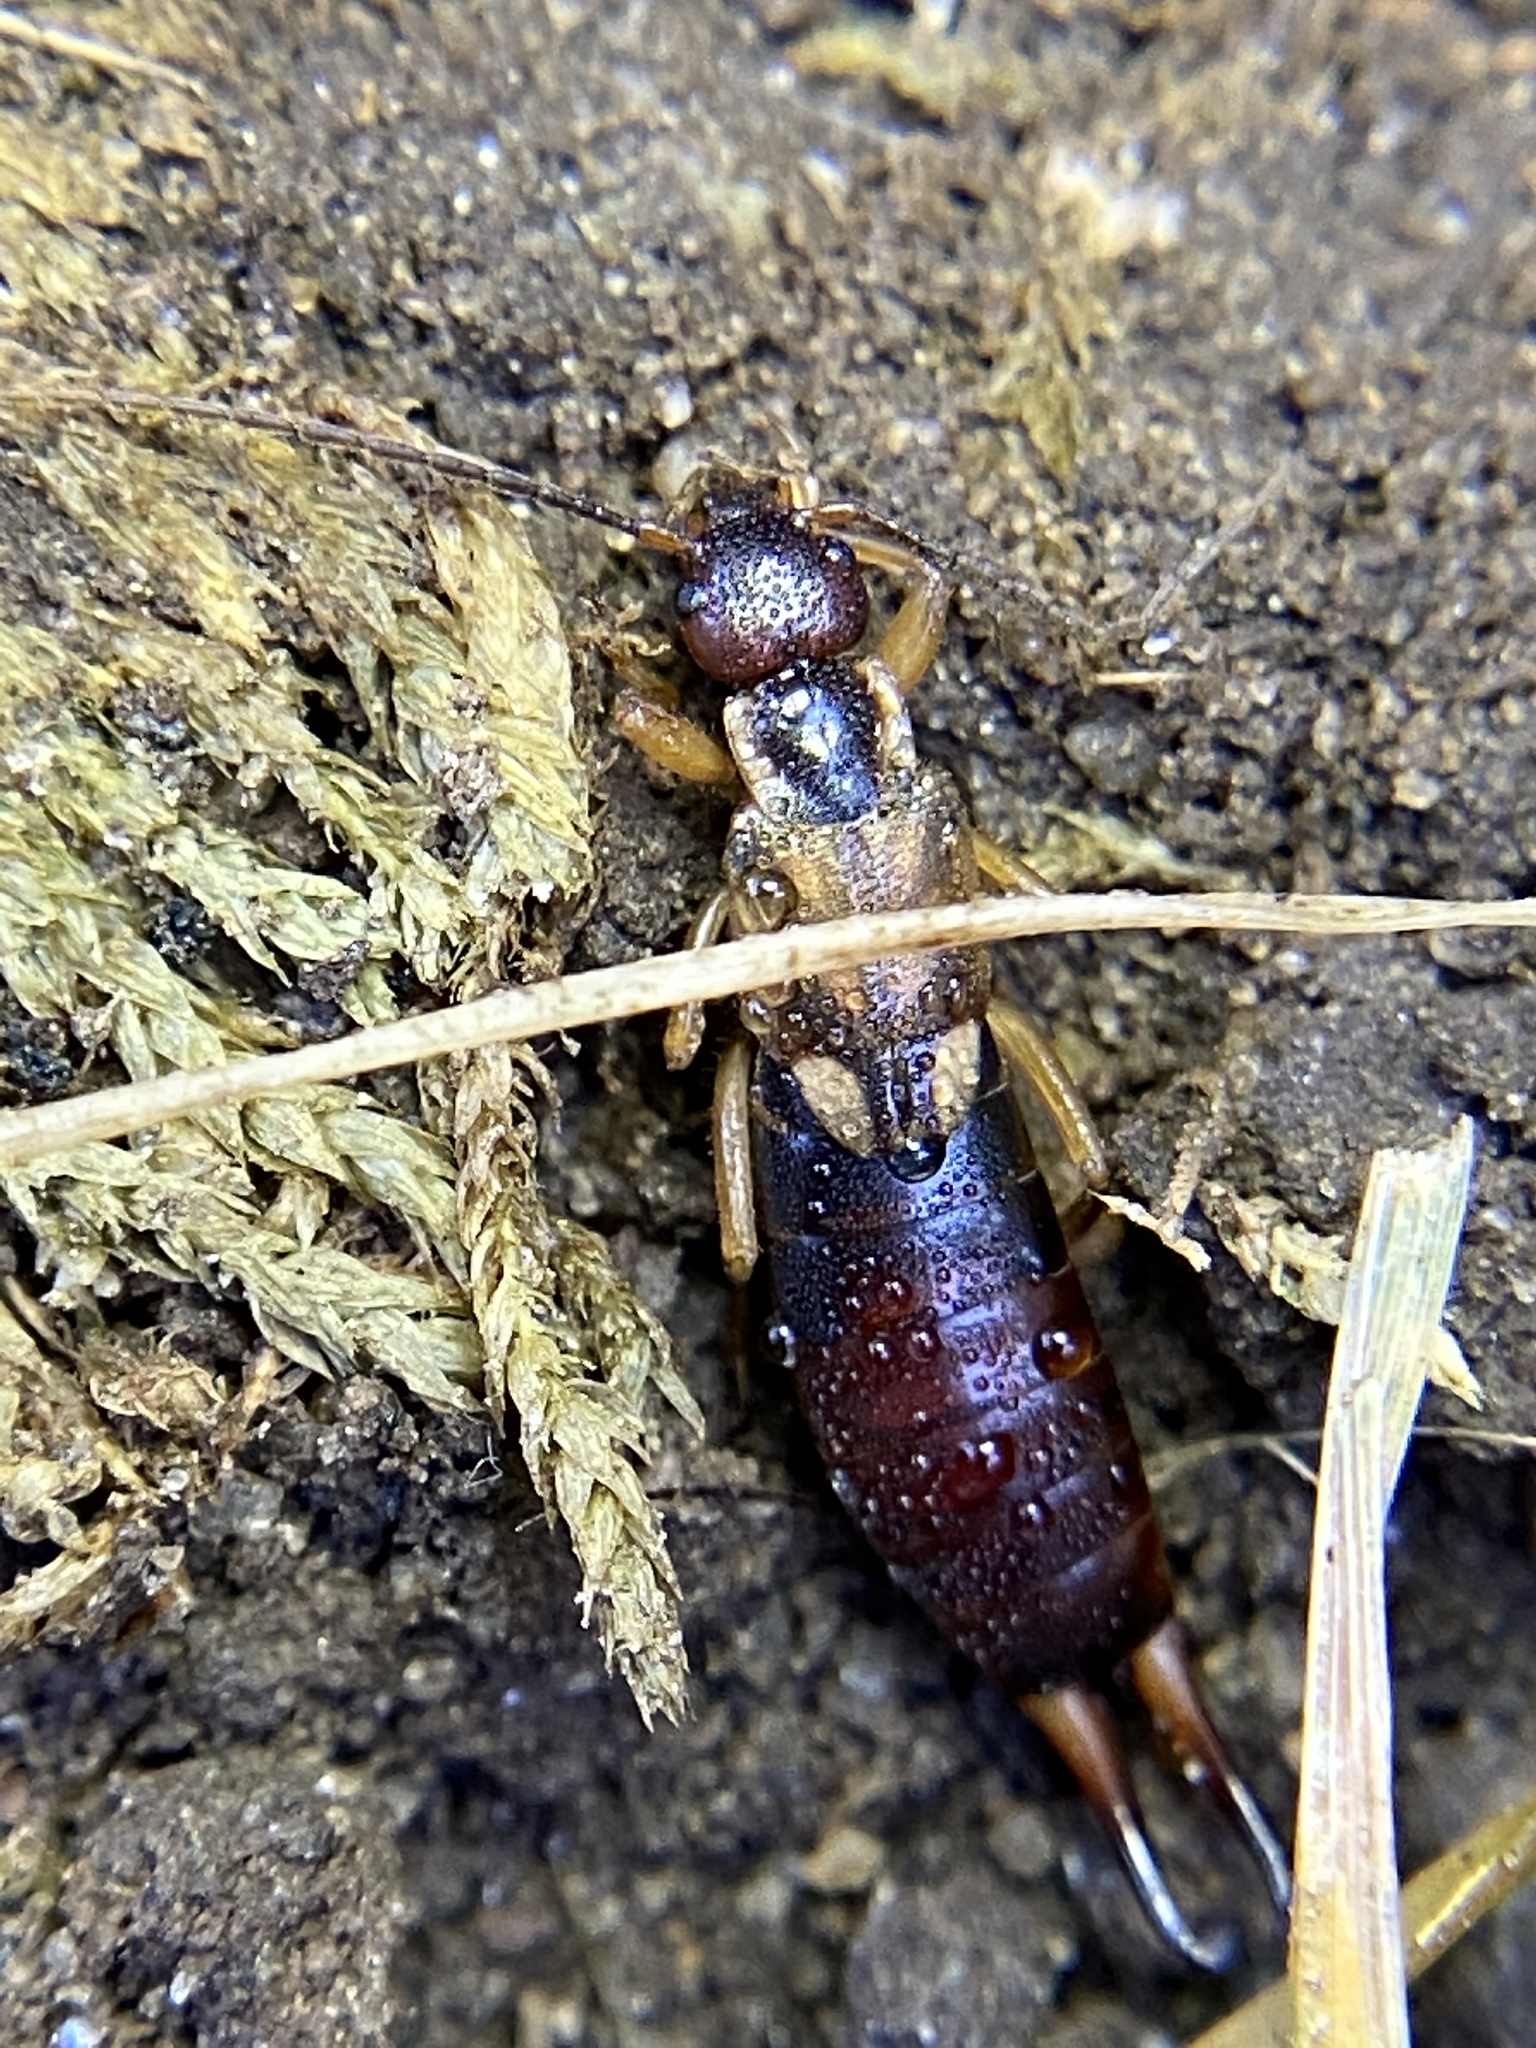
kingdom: Animalia
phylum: Arthropoda
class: Insecta
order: Dermaptera
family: Forficulidae
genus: Forficula
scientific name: Forficula
